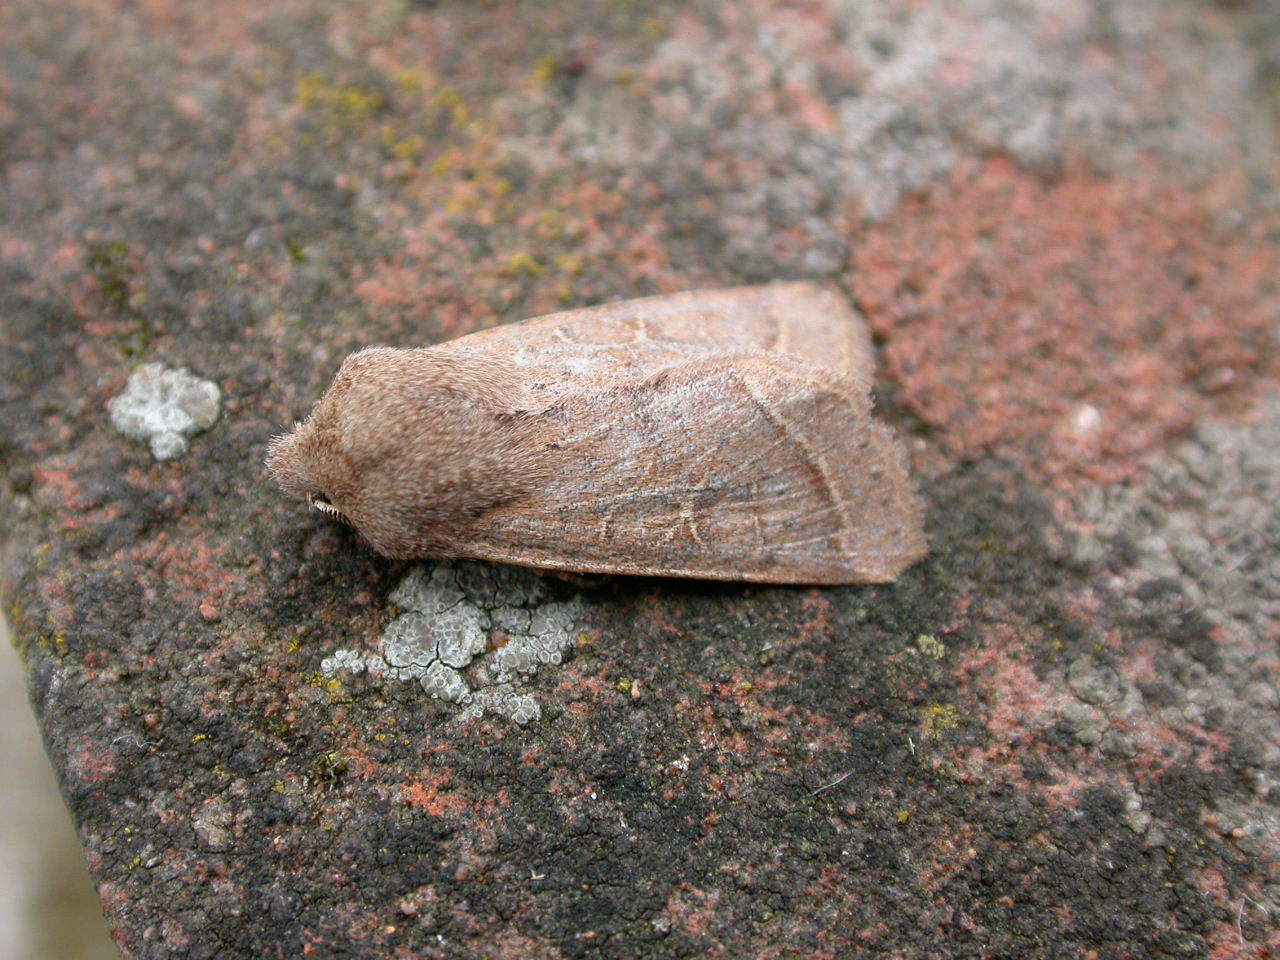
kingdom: Animalia
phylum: Arthropoda
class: Insecta
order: Lepidoptera
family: Noctuidae
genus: Orthosia
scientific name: Orthosia cerasi
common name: Common quaker
